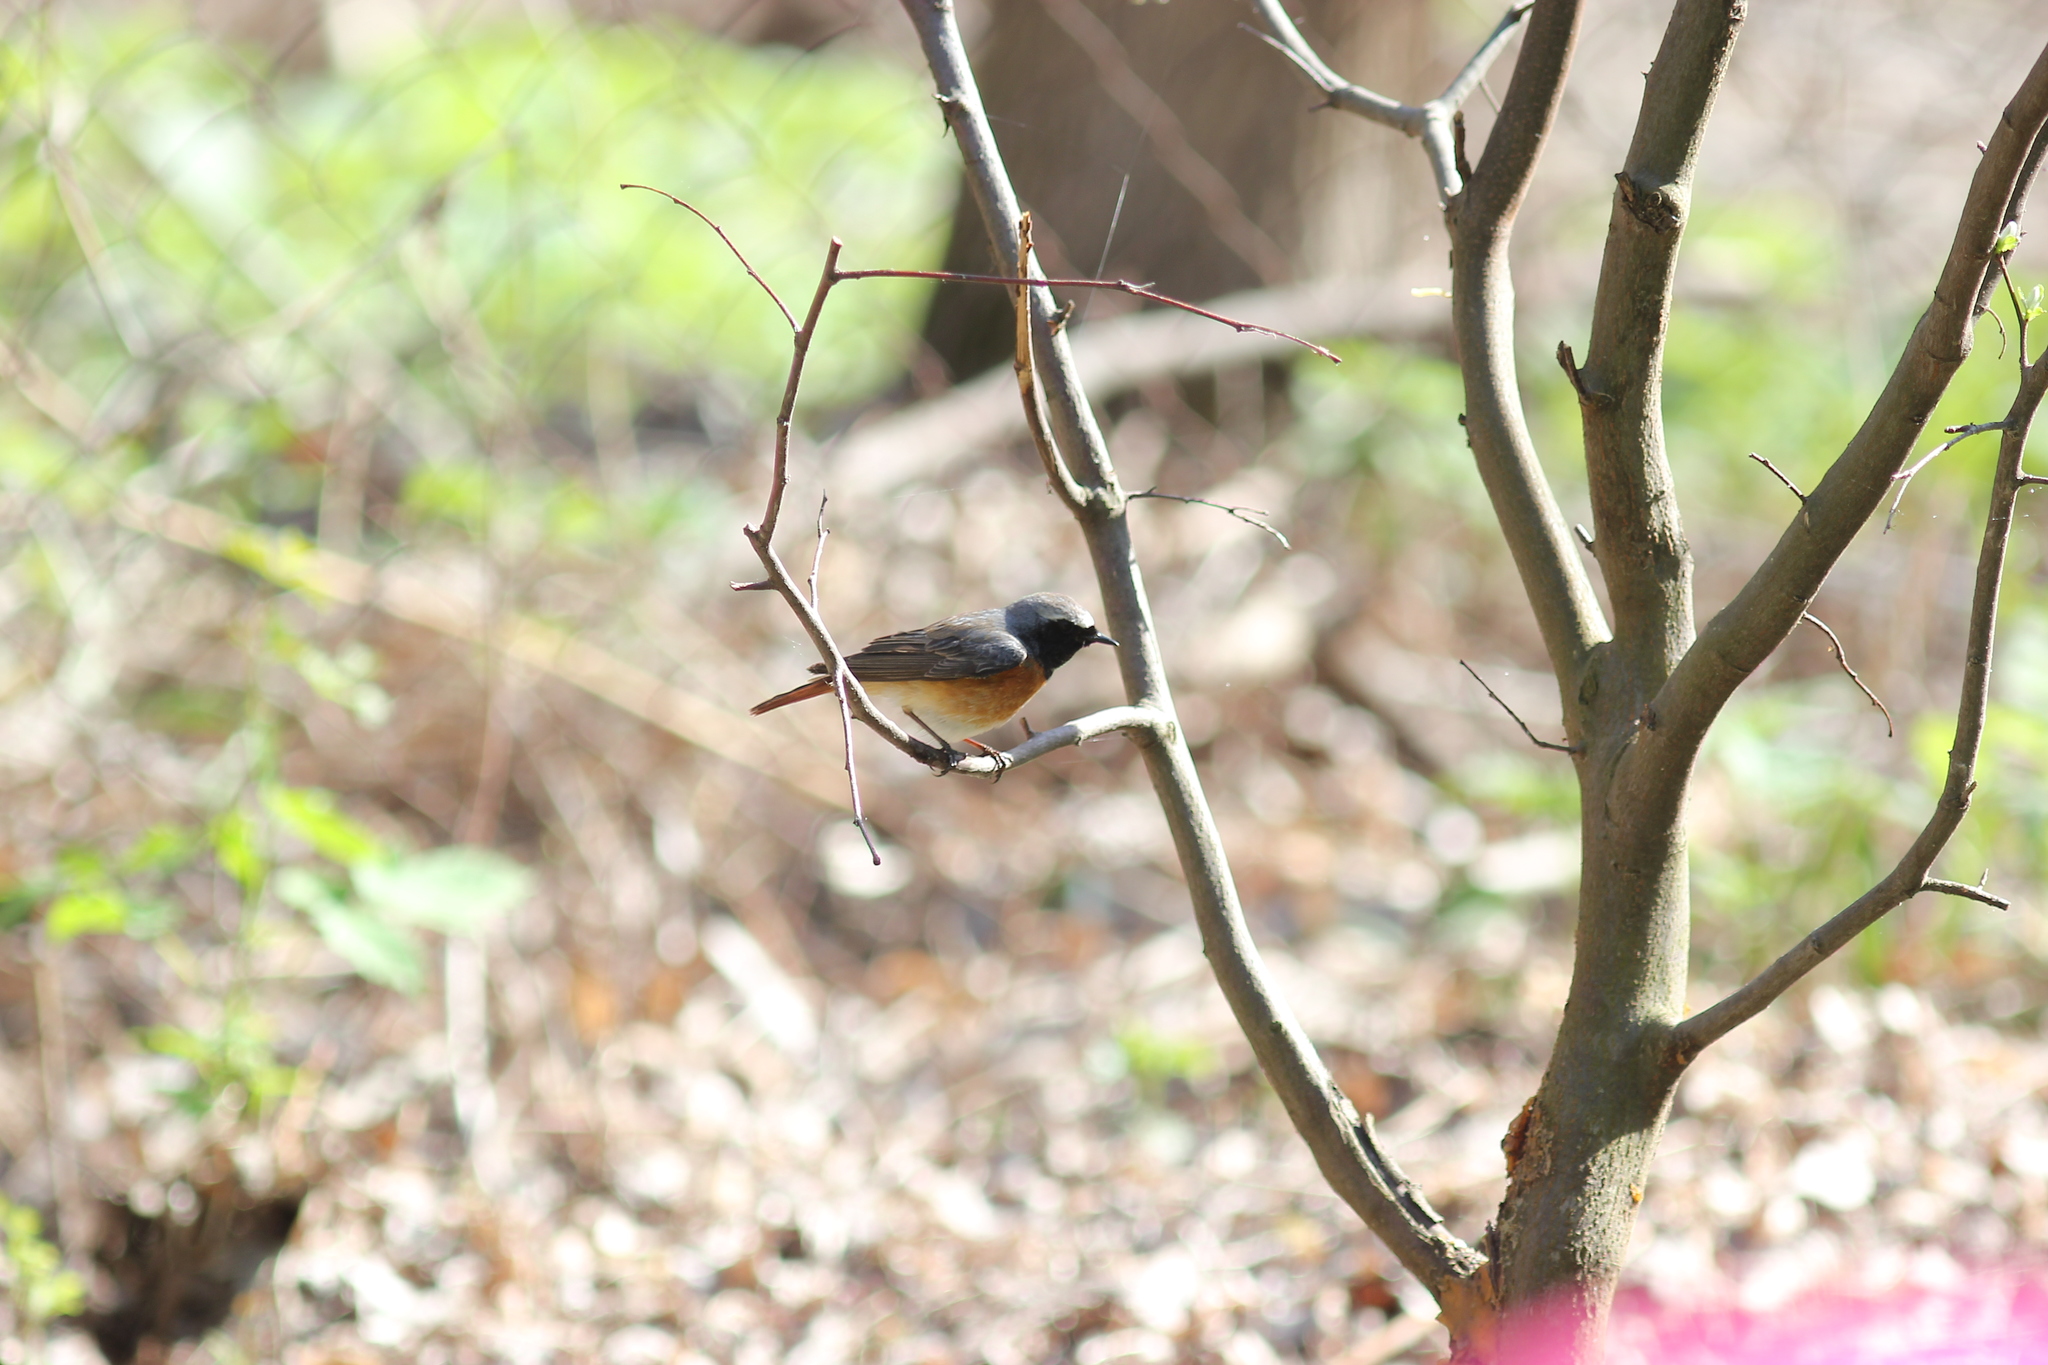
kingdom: Animalia
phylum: Chordata
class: Aves
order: Passeriformes
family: Muscicapidae
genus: Phoenicurus
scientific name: Phoenicurus phoenicurus
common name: Common redstart
